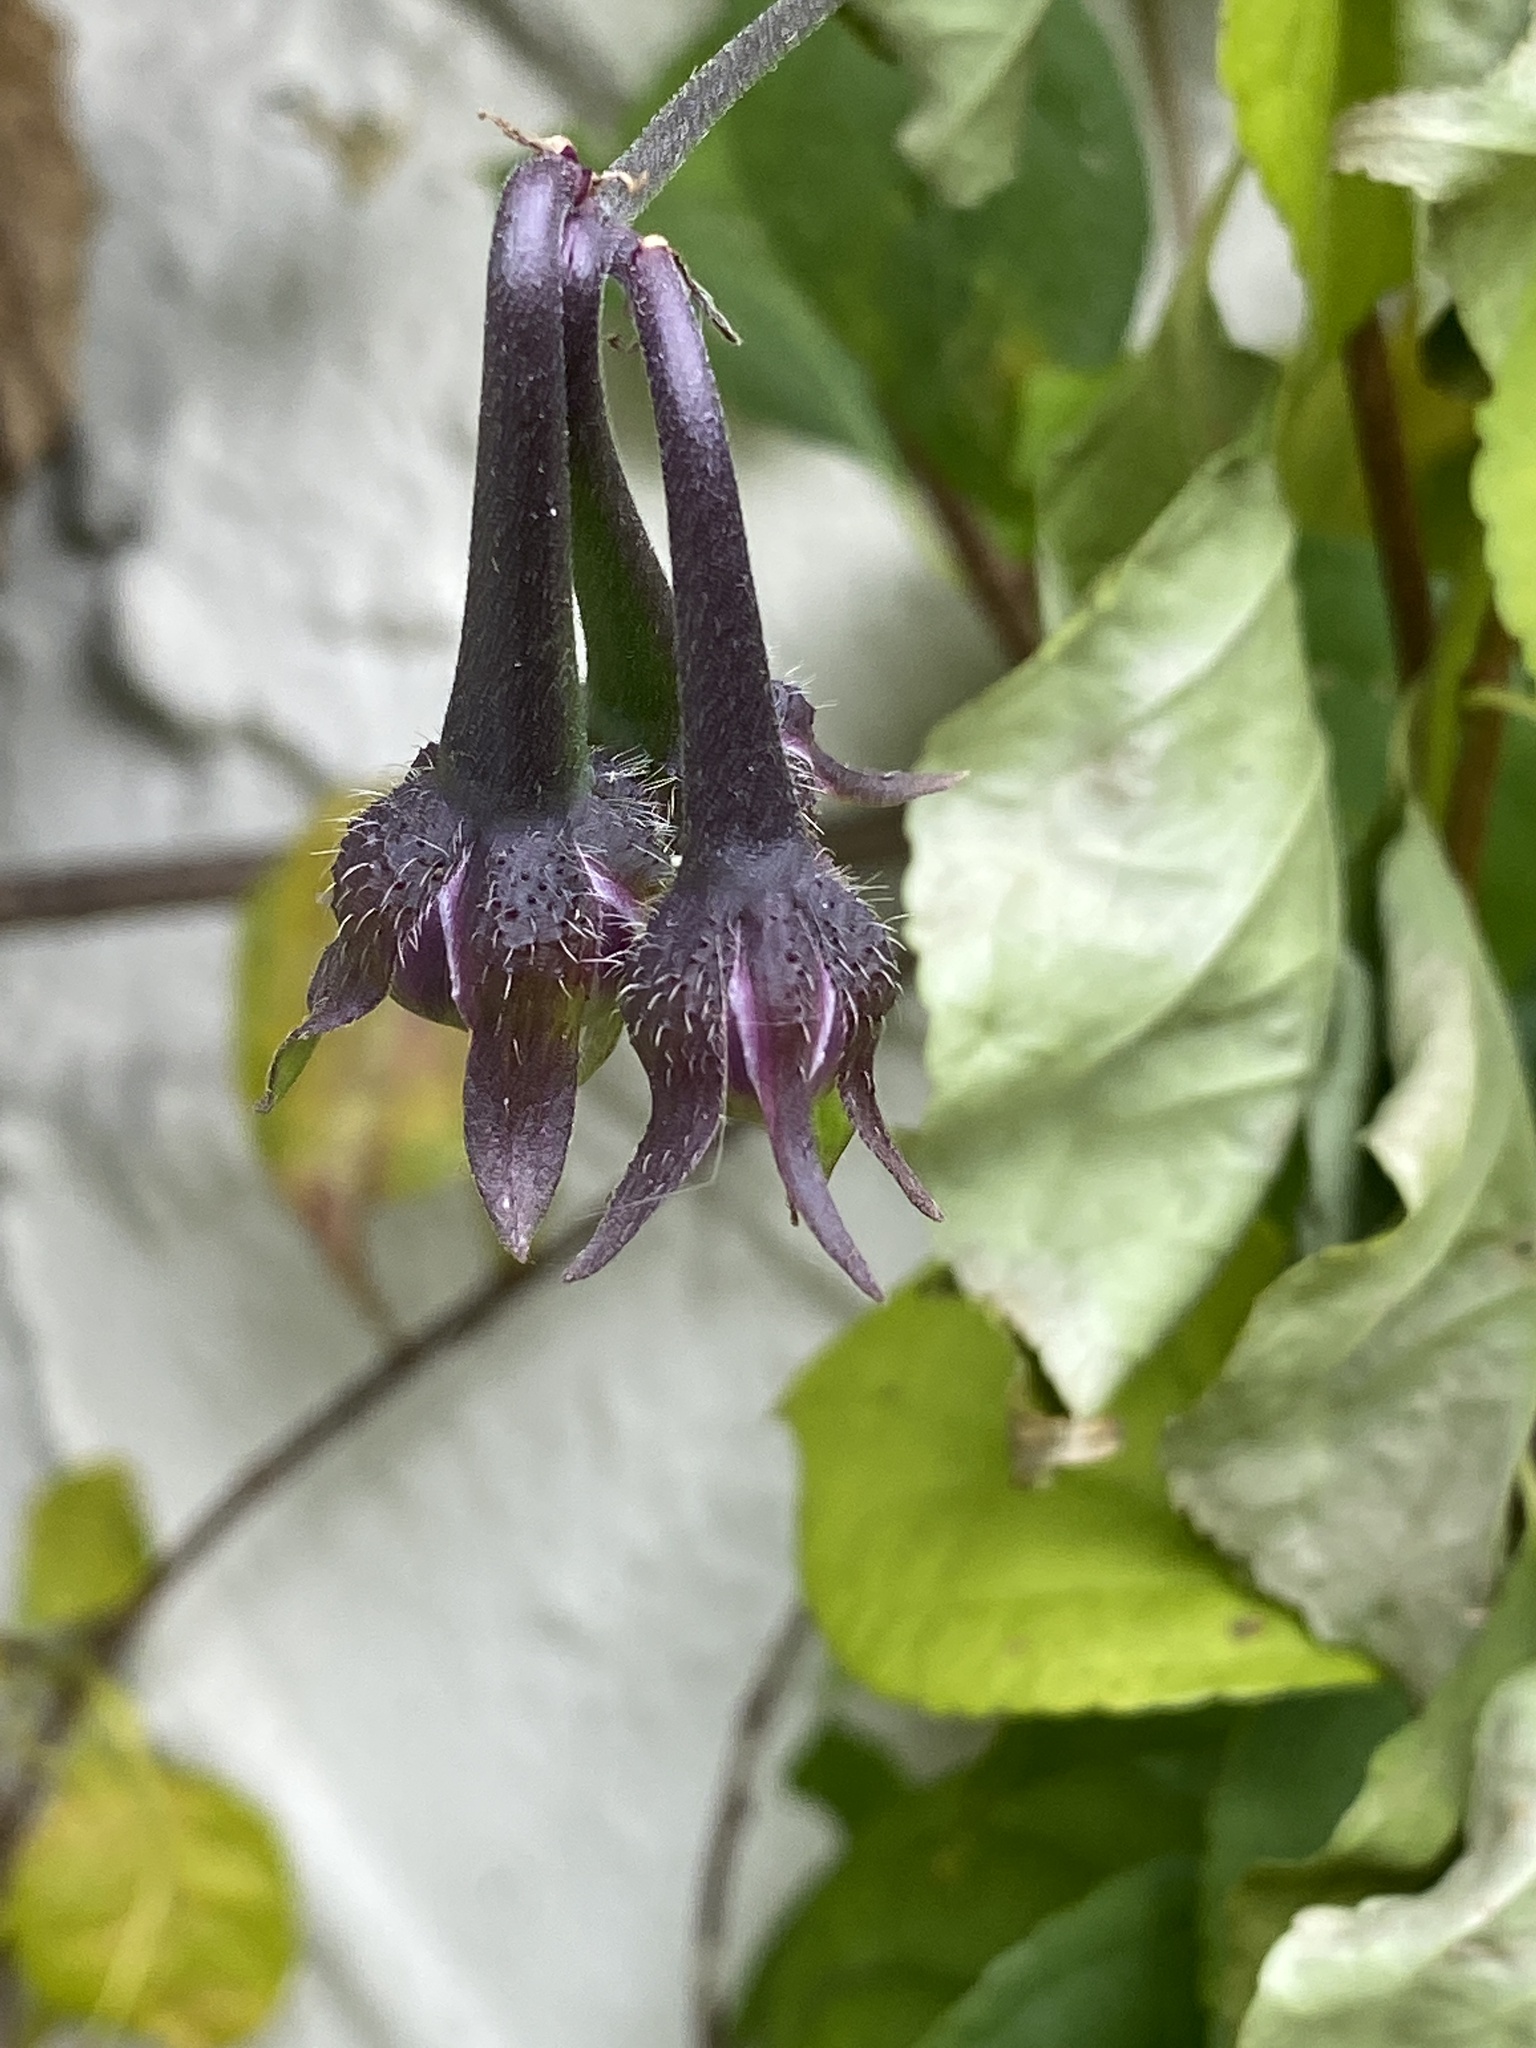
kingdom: Plantae
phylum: Tracheophyta
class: Magnoliopsida
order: Solanales
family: Convolvulaceae
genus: Ipomoea
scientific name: Ipomoea purpurea
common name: Common morning-glory
